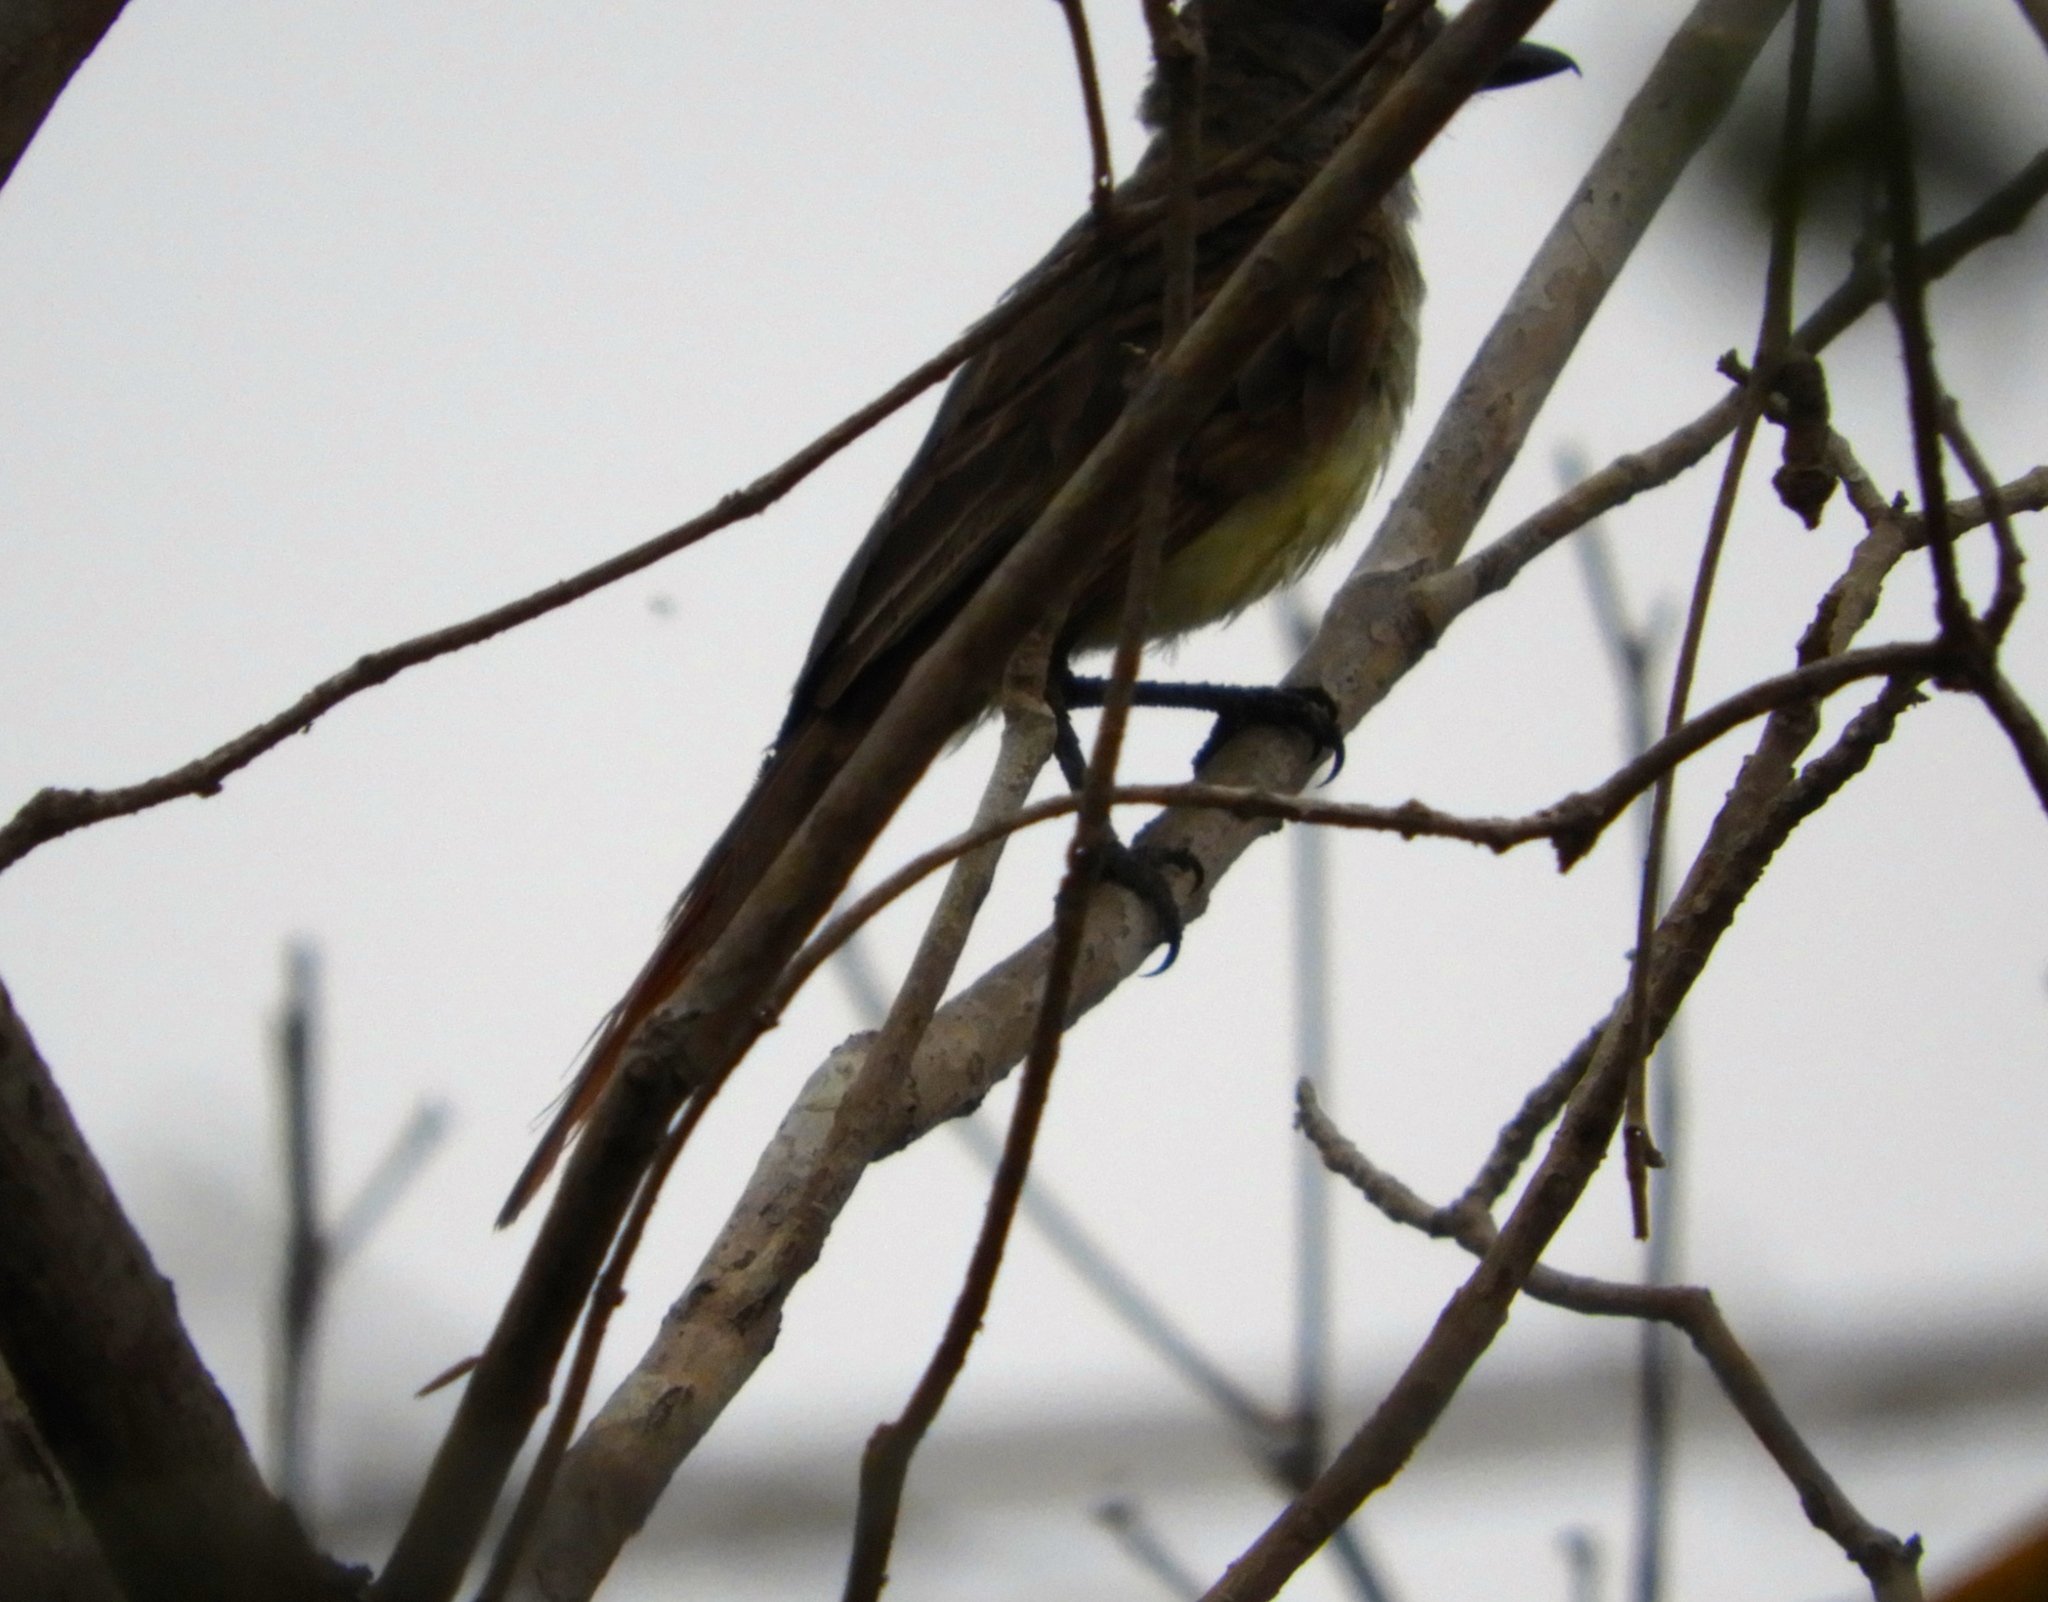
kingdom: Animalia
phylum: Chordata
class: Aves
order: Passeriformes
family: Tyrannidae
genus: Myiarchus
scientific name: Myiarchus
